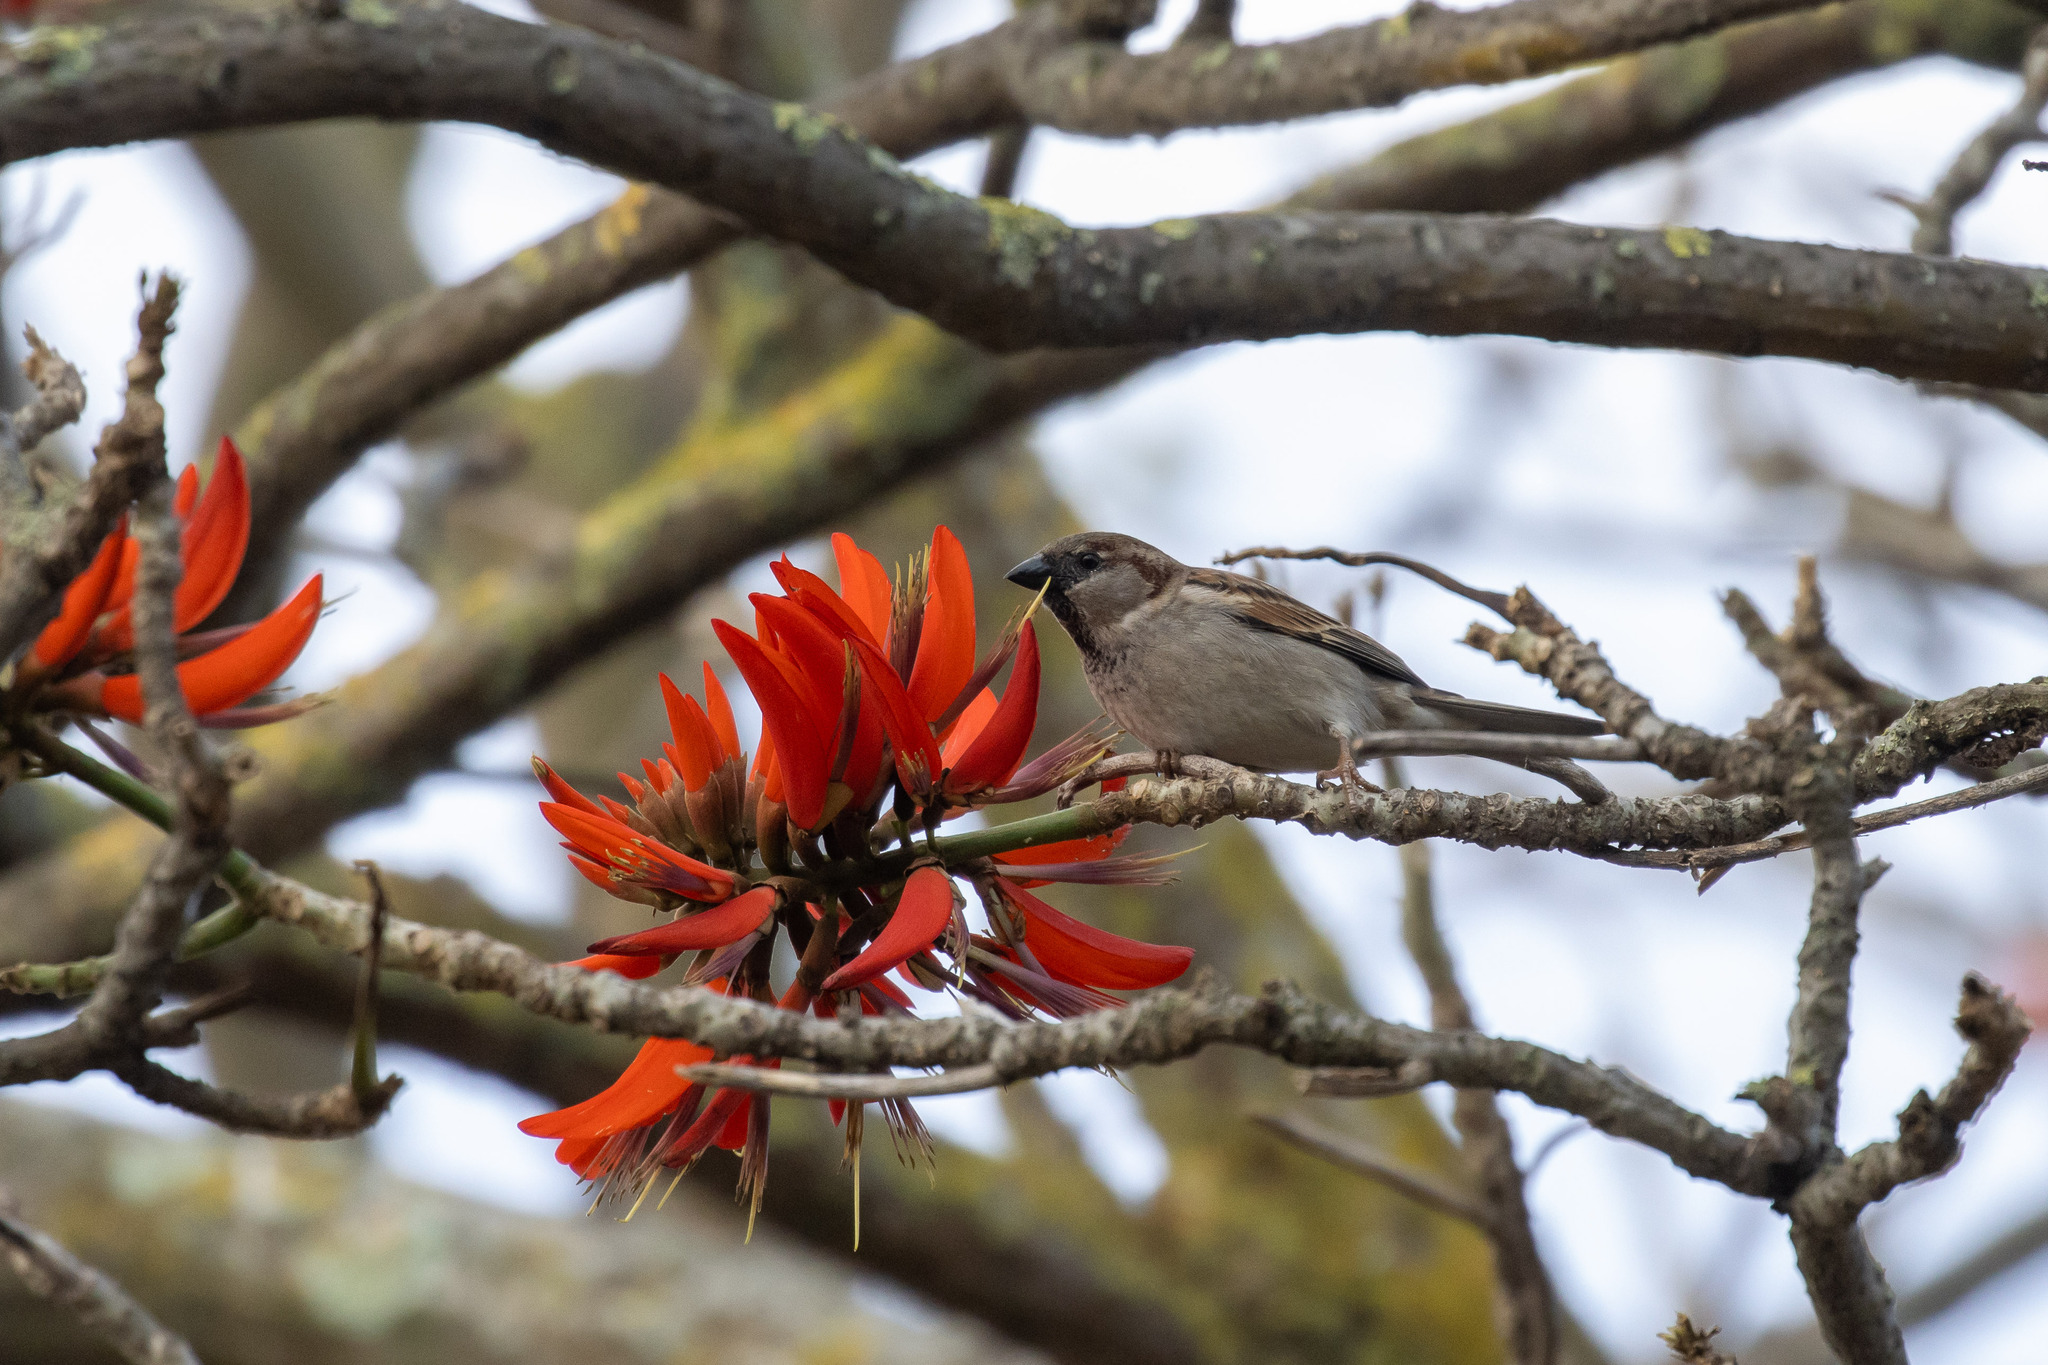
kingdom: Animalia
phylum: Chordata
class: Aves
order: Passeriformes
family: Passeridae
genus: Passer
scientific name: Passer domesticus
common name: House sparrow
